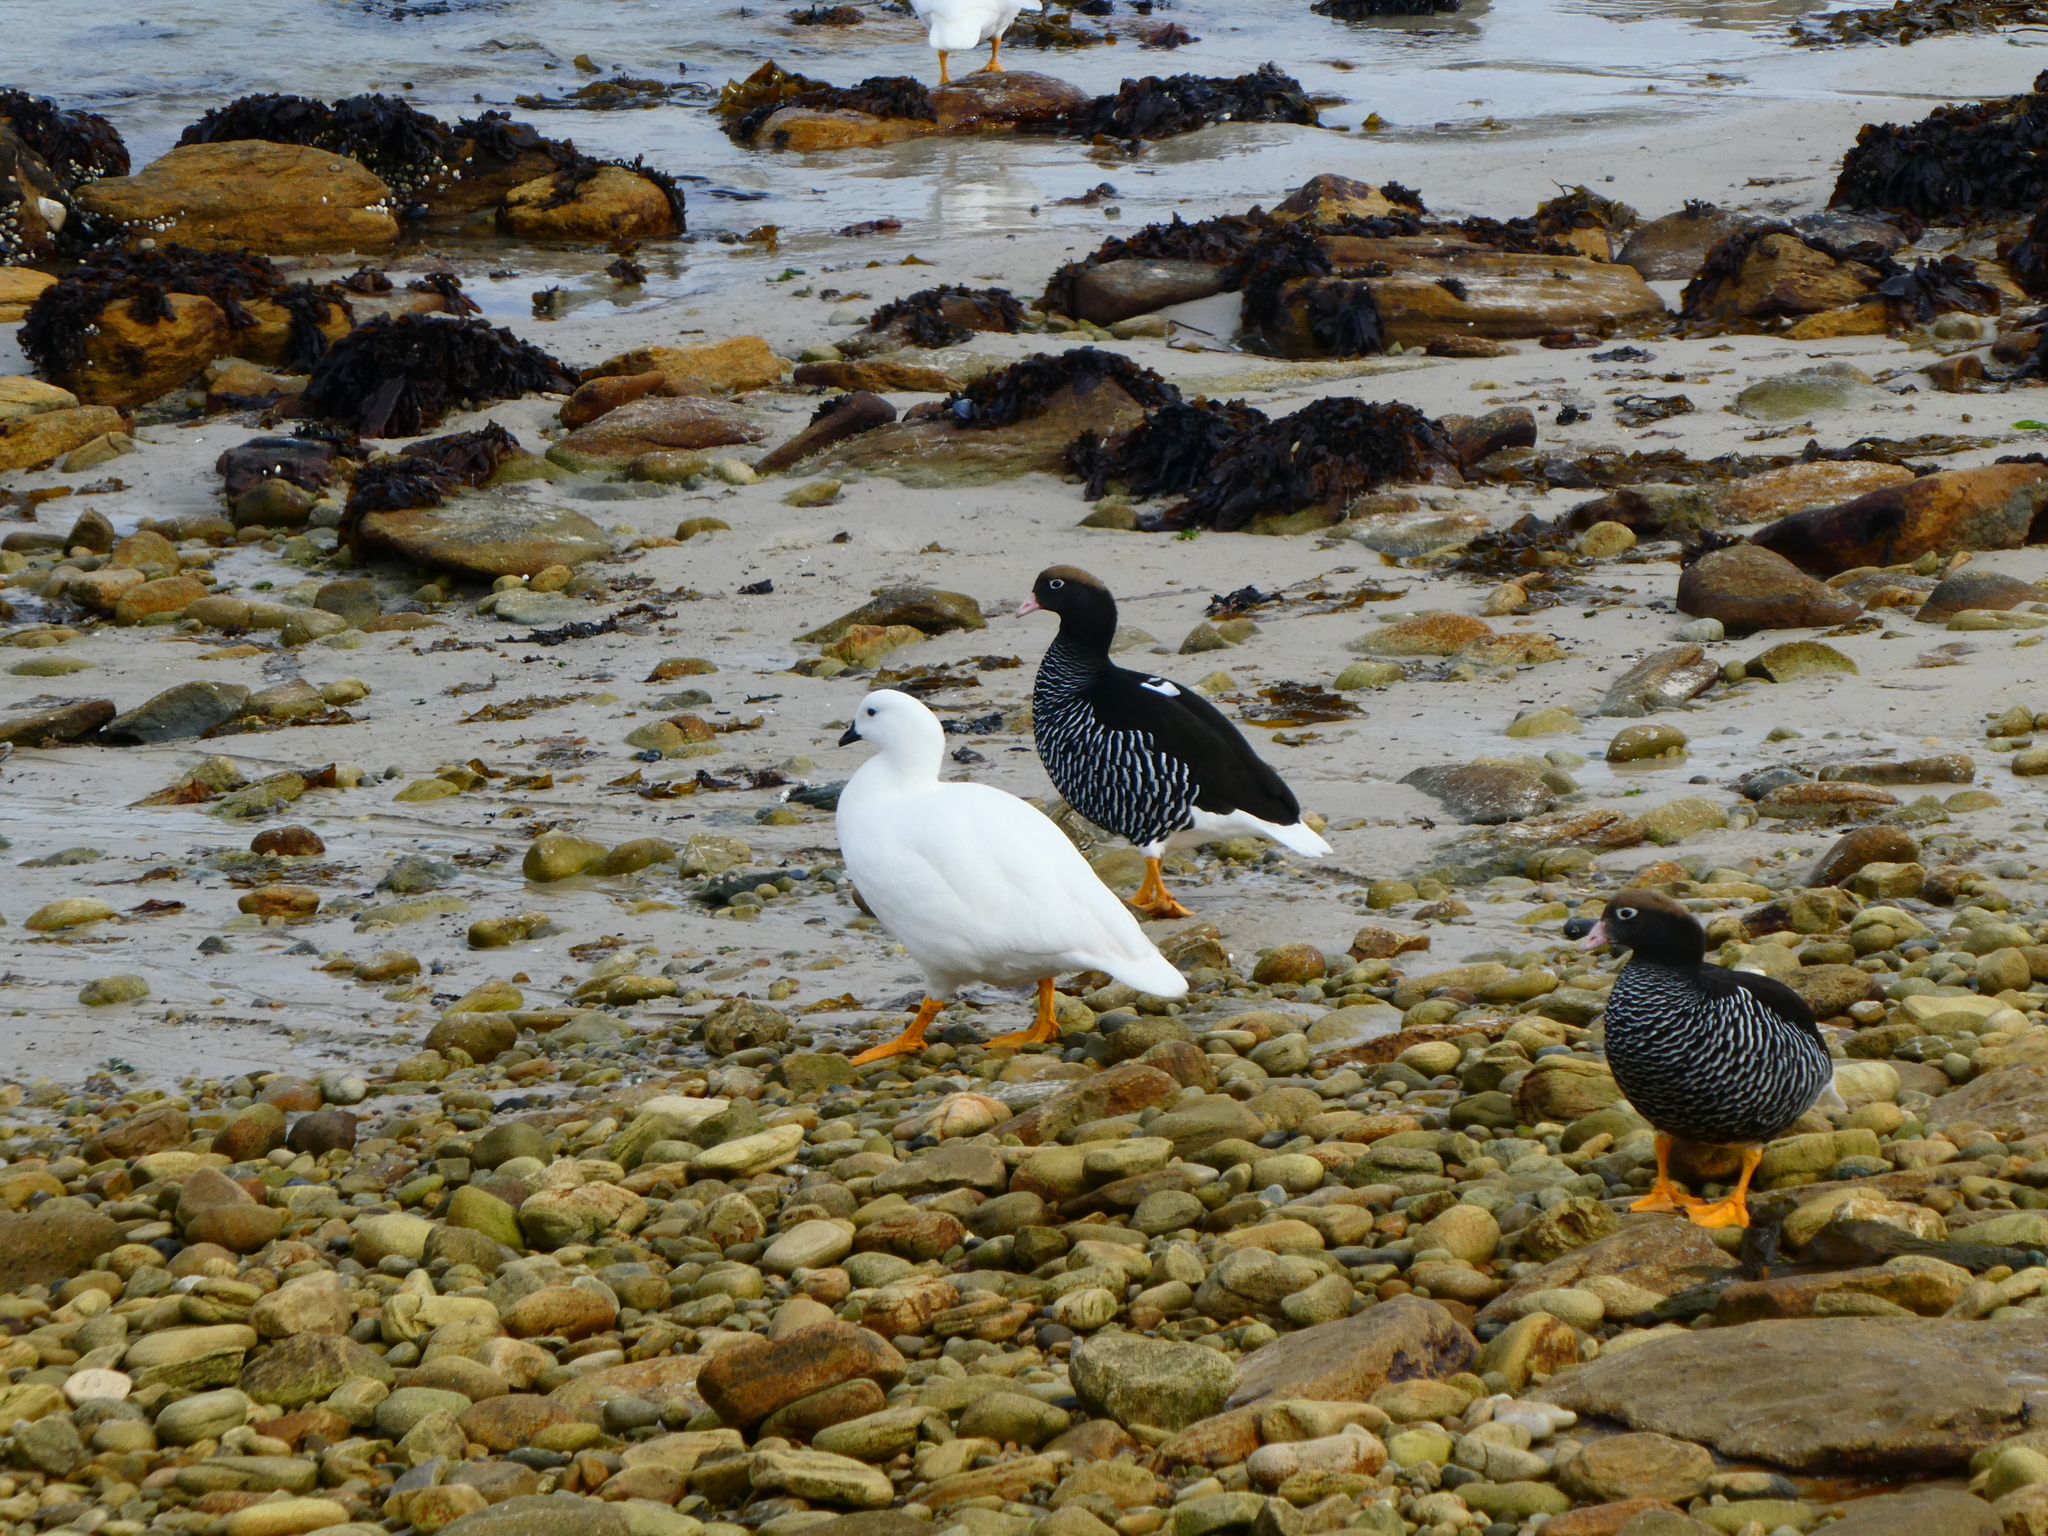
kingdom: Animalia
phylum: Chordata
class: Aves
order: Anseriformes
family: Anatidae
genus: Chloephaga
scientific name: Chloephaga hybrida
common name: Kelp goose
